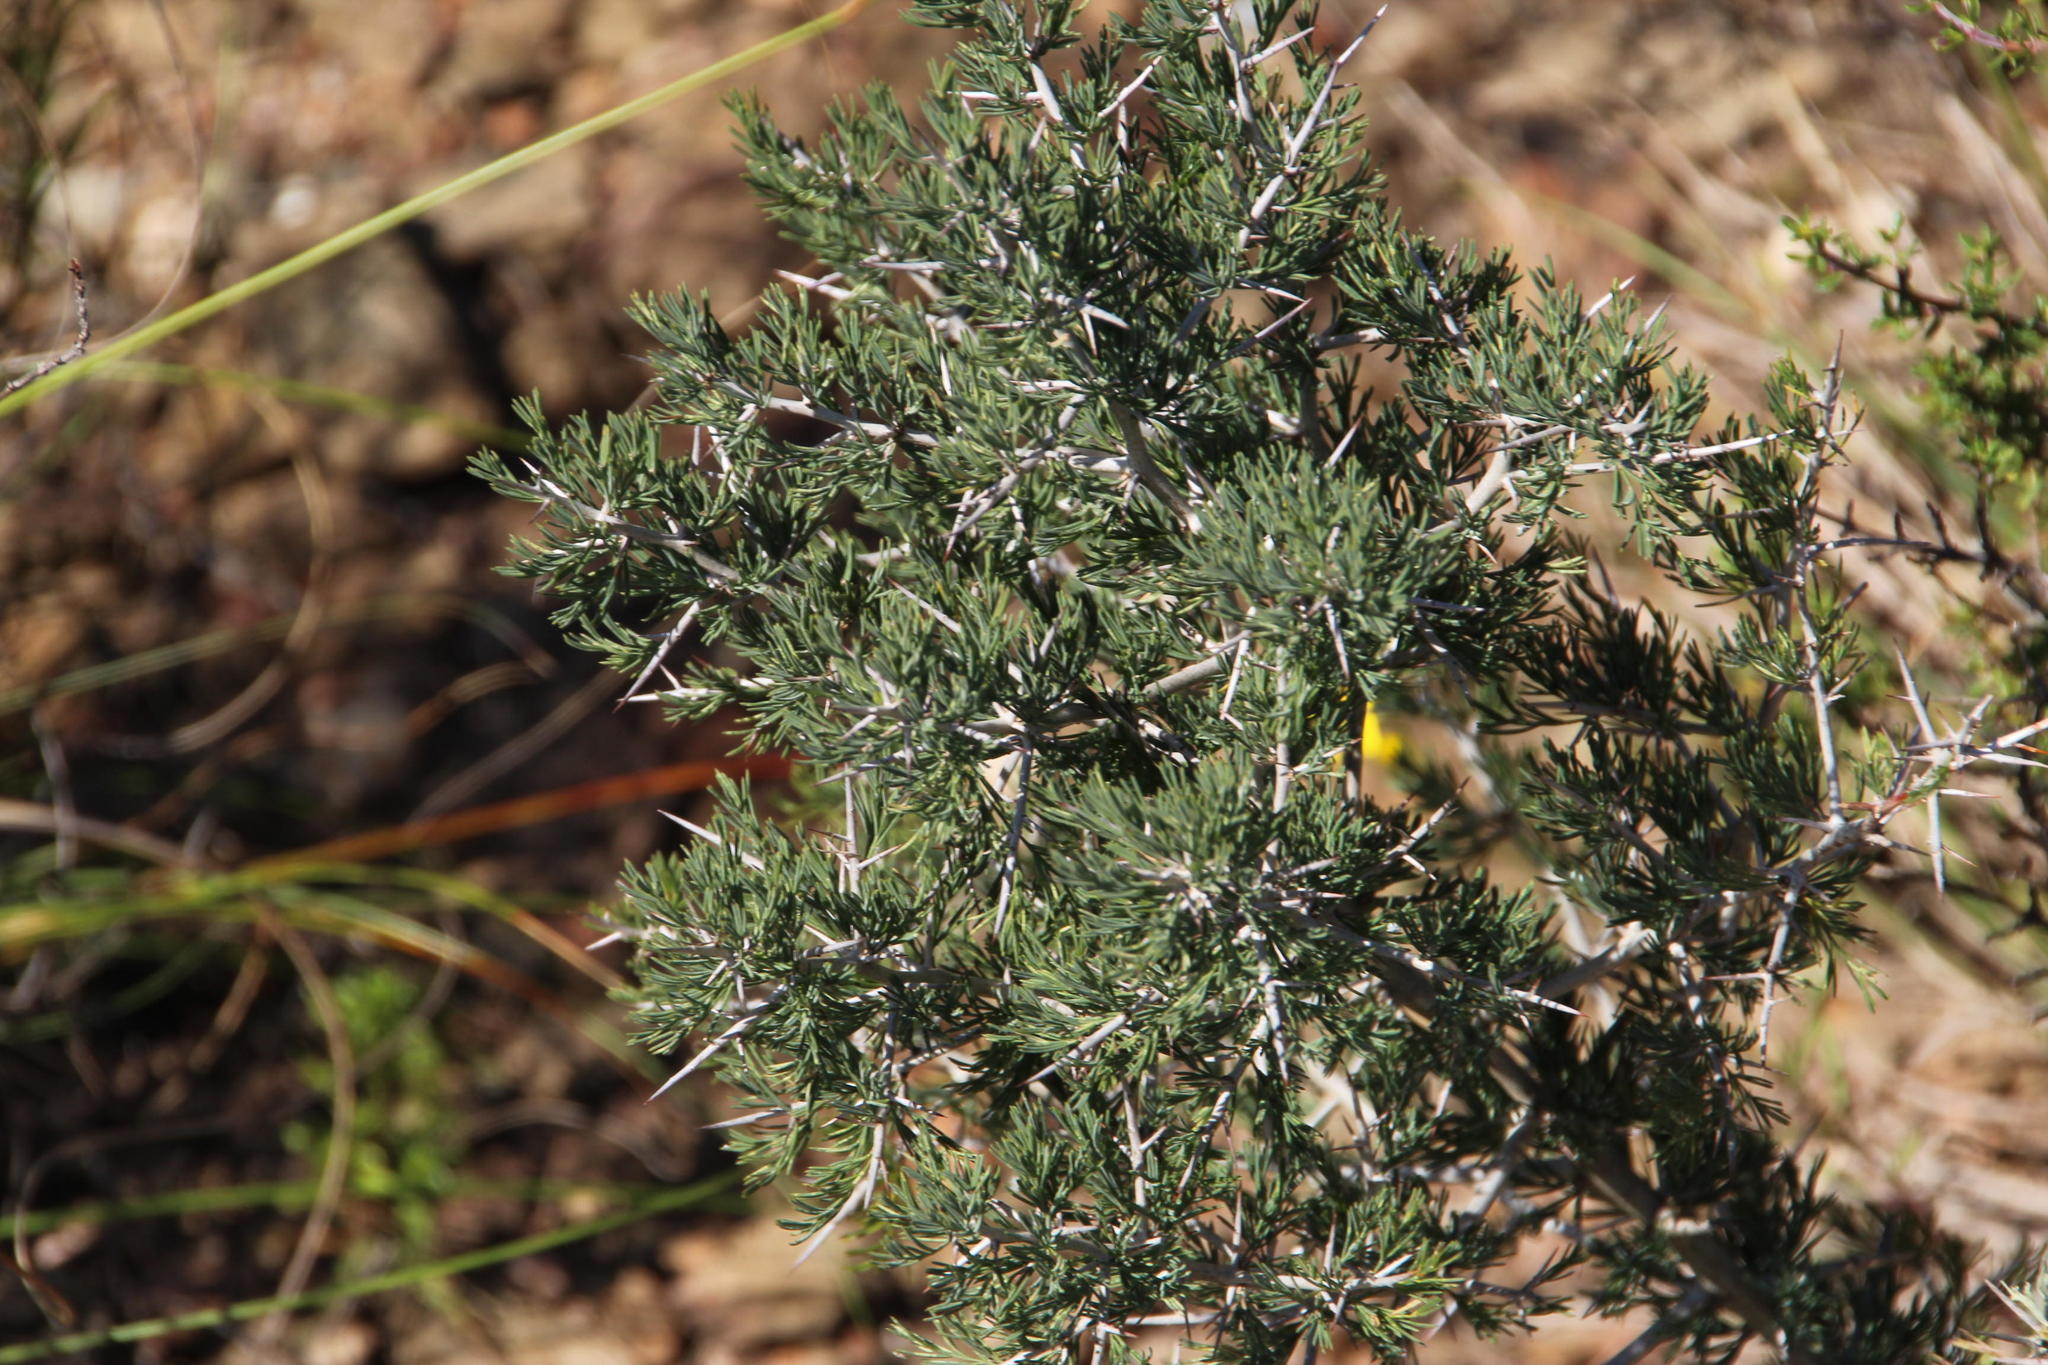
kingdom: Plantae
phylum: Tracheophyta
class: Liliopsida
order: Asparagales
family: Asparagaceae
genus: Asparagus
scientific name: Asparagus mariae
